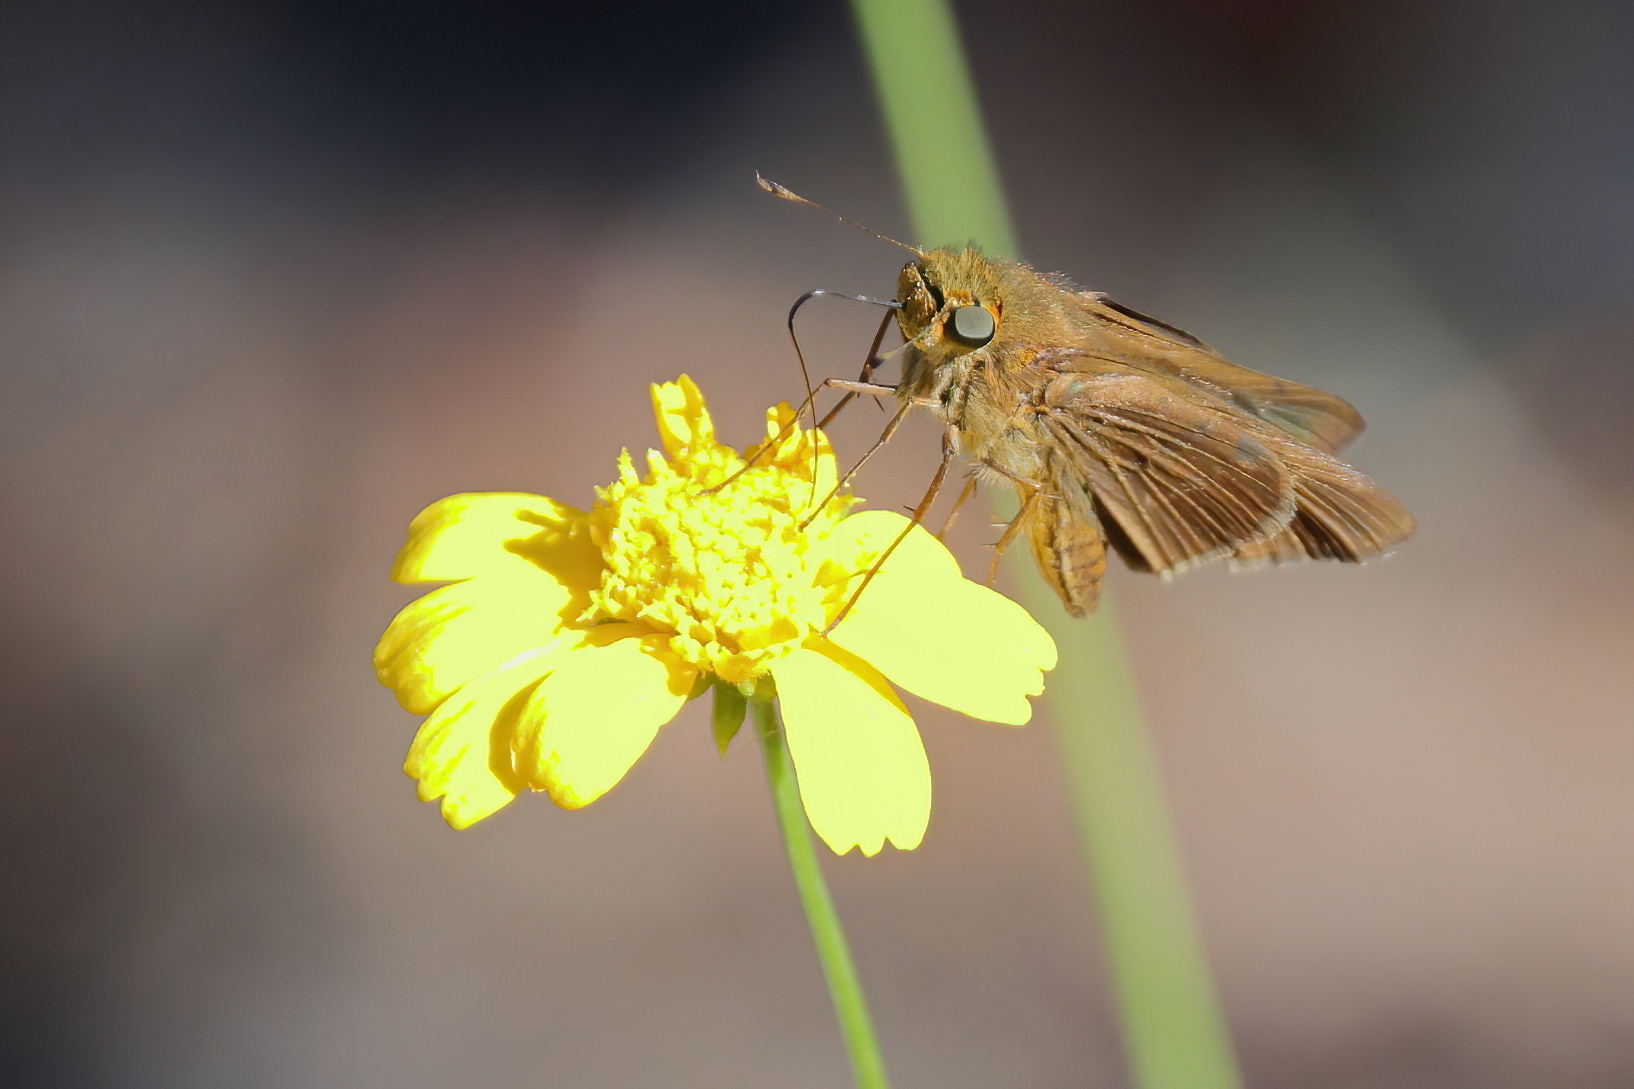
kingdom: Animalia
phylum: Arthropoda
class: Insecta
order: Lepidoptera
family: Hesperiidae
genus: Panoquina
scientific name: Panoquina ocola
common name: Ocola skipper
